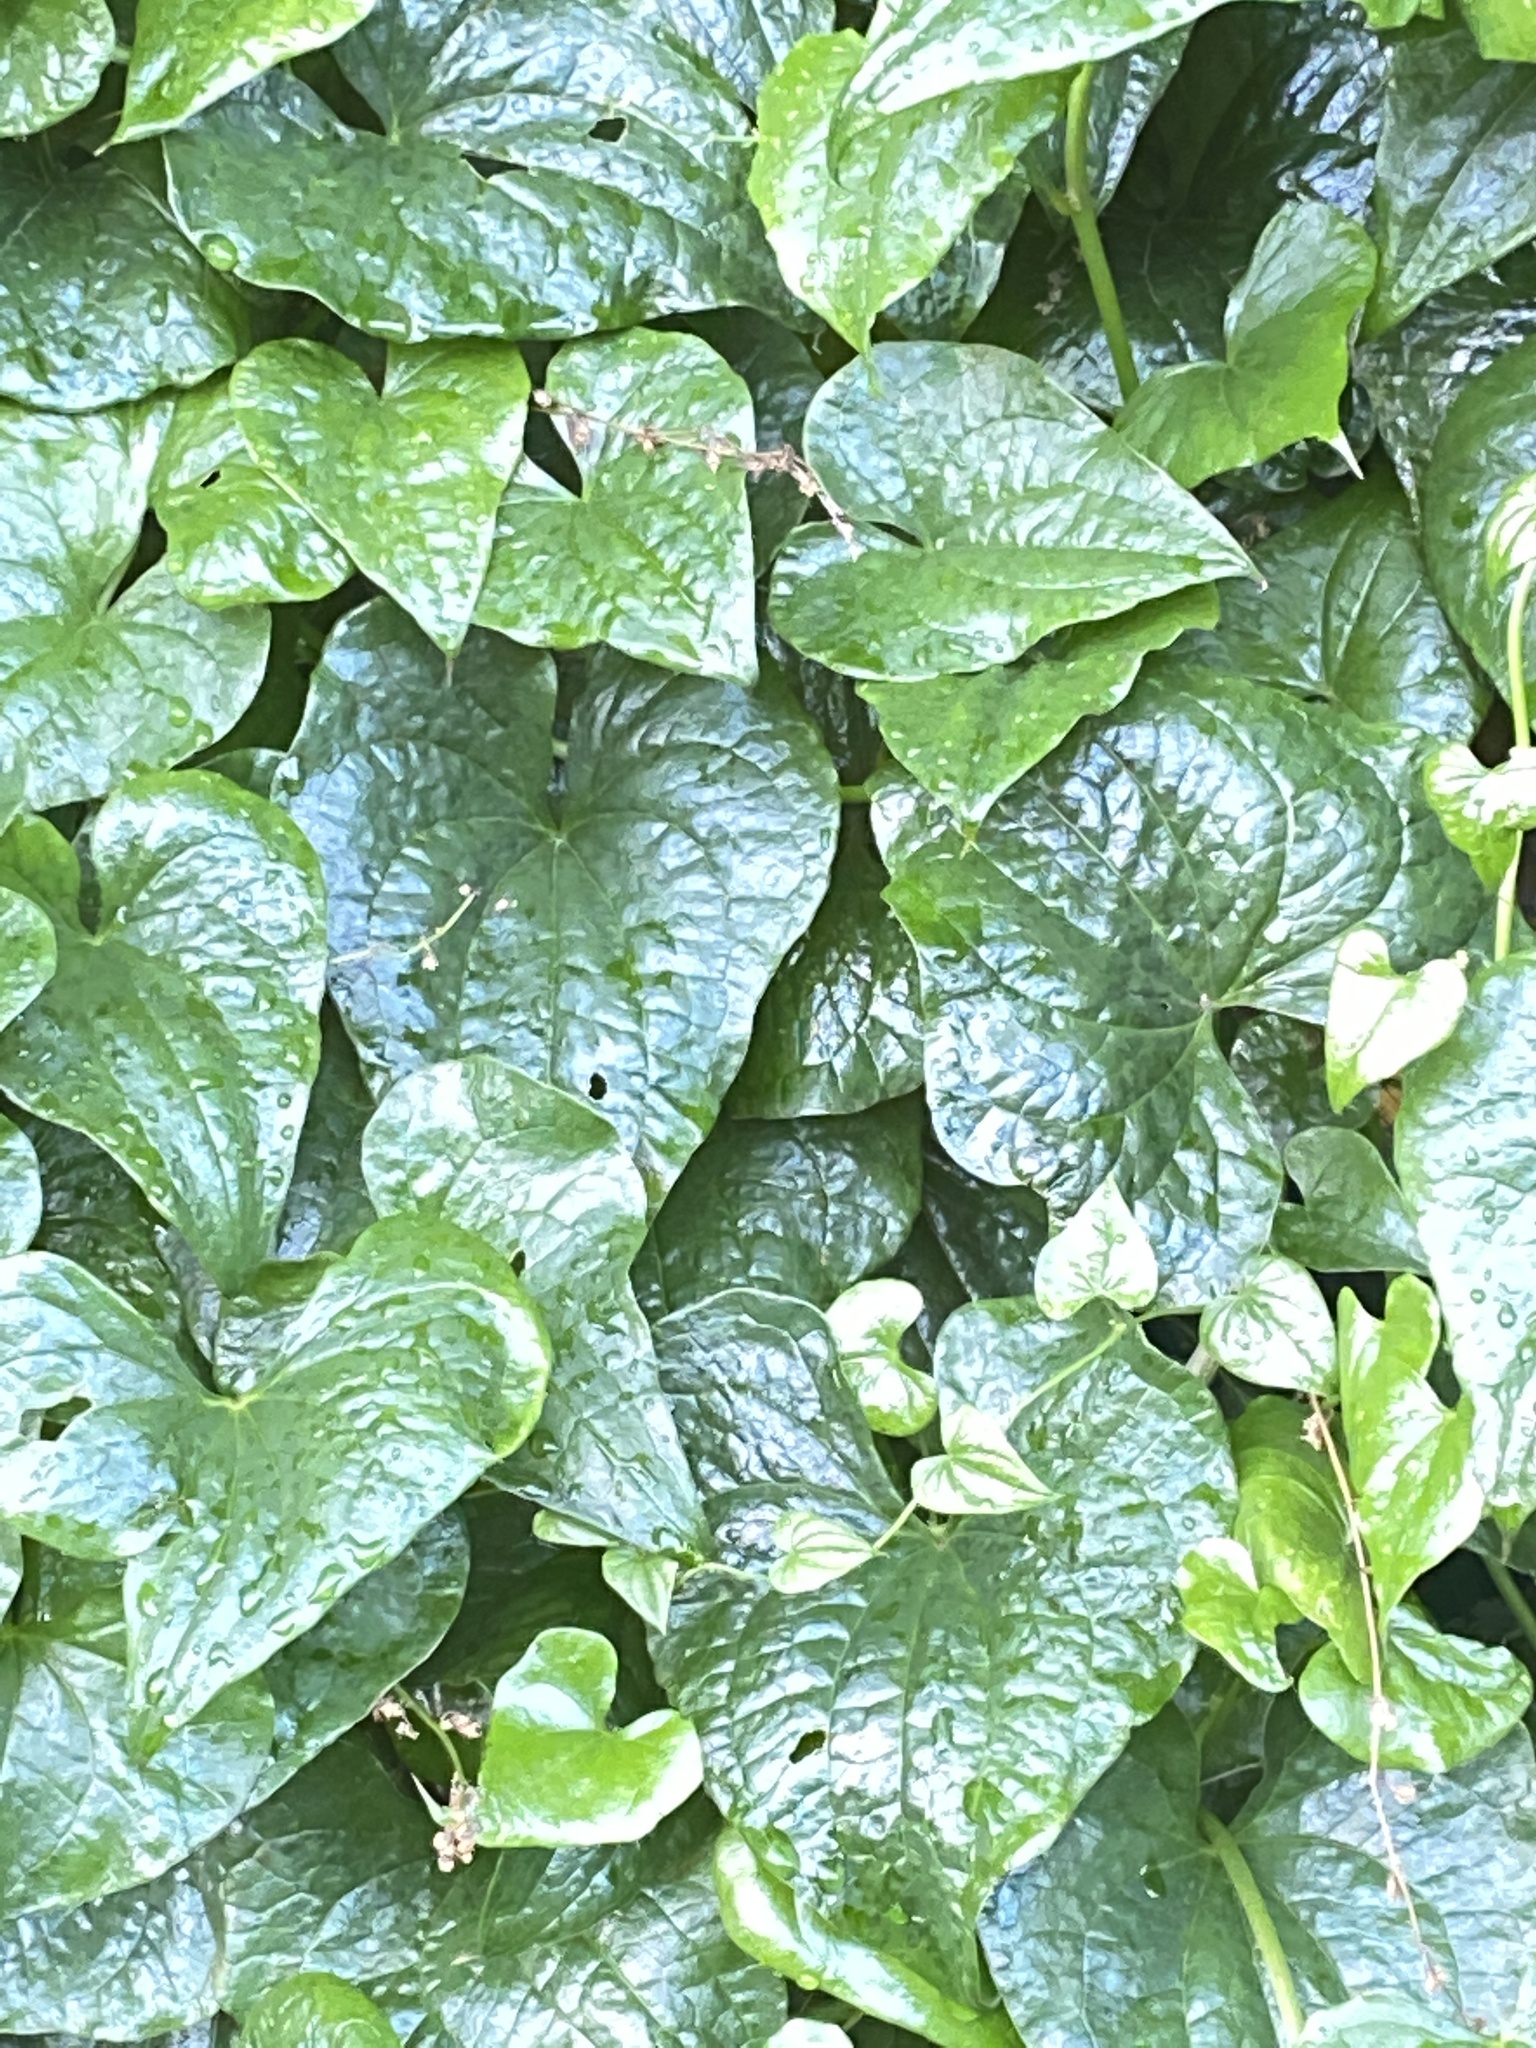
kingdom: Plantae
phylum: Tracheophyta
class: Liliopsida
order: Dioscoreales
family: Dioscoreaceae
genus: Dioscorea
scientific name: Dioscorea communis
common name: Black-bindweed
